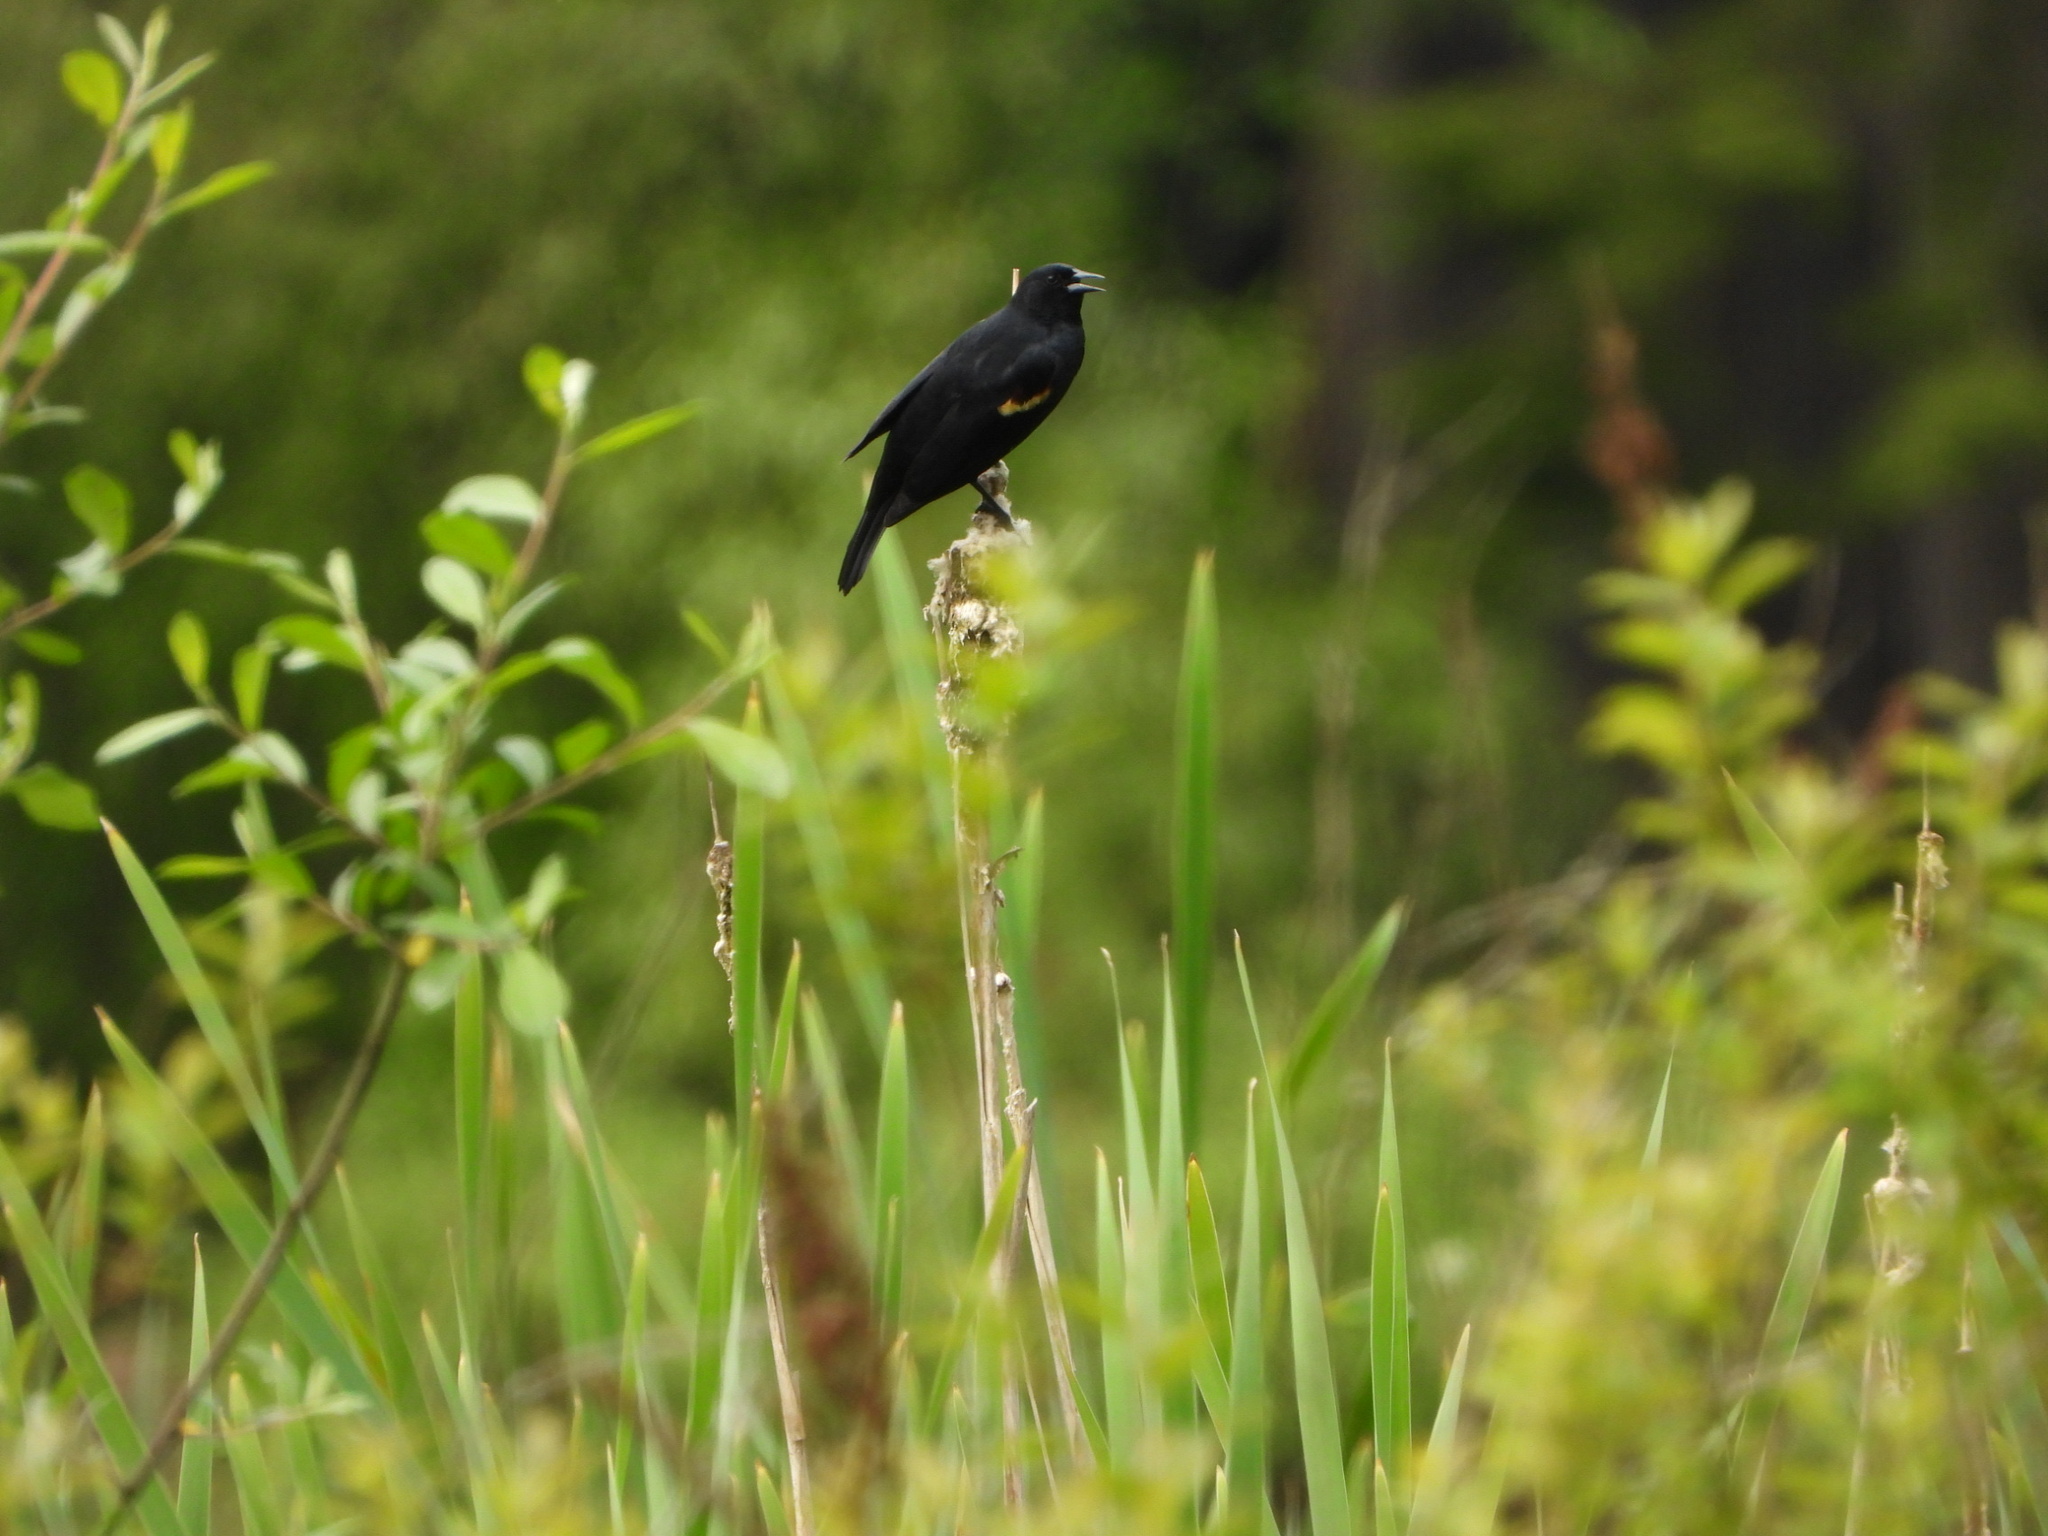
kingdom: Animalia
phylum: Chordata
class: Aves
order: Passeriformes
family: Icteridae
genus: Agelaius
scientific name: Agelaius phoeniceus
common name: Red-winged blackbird
